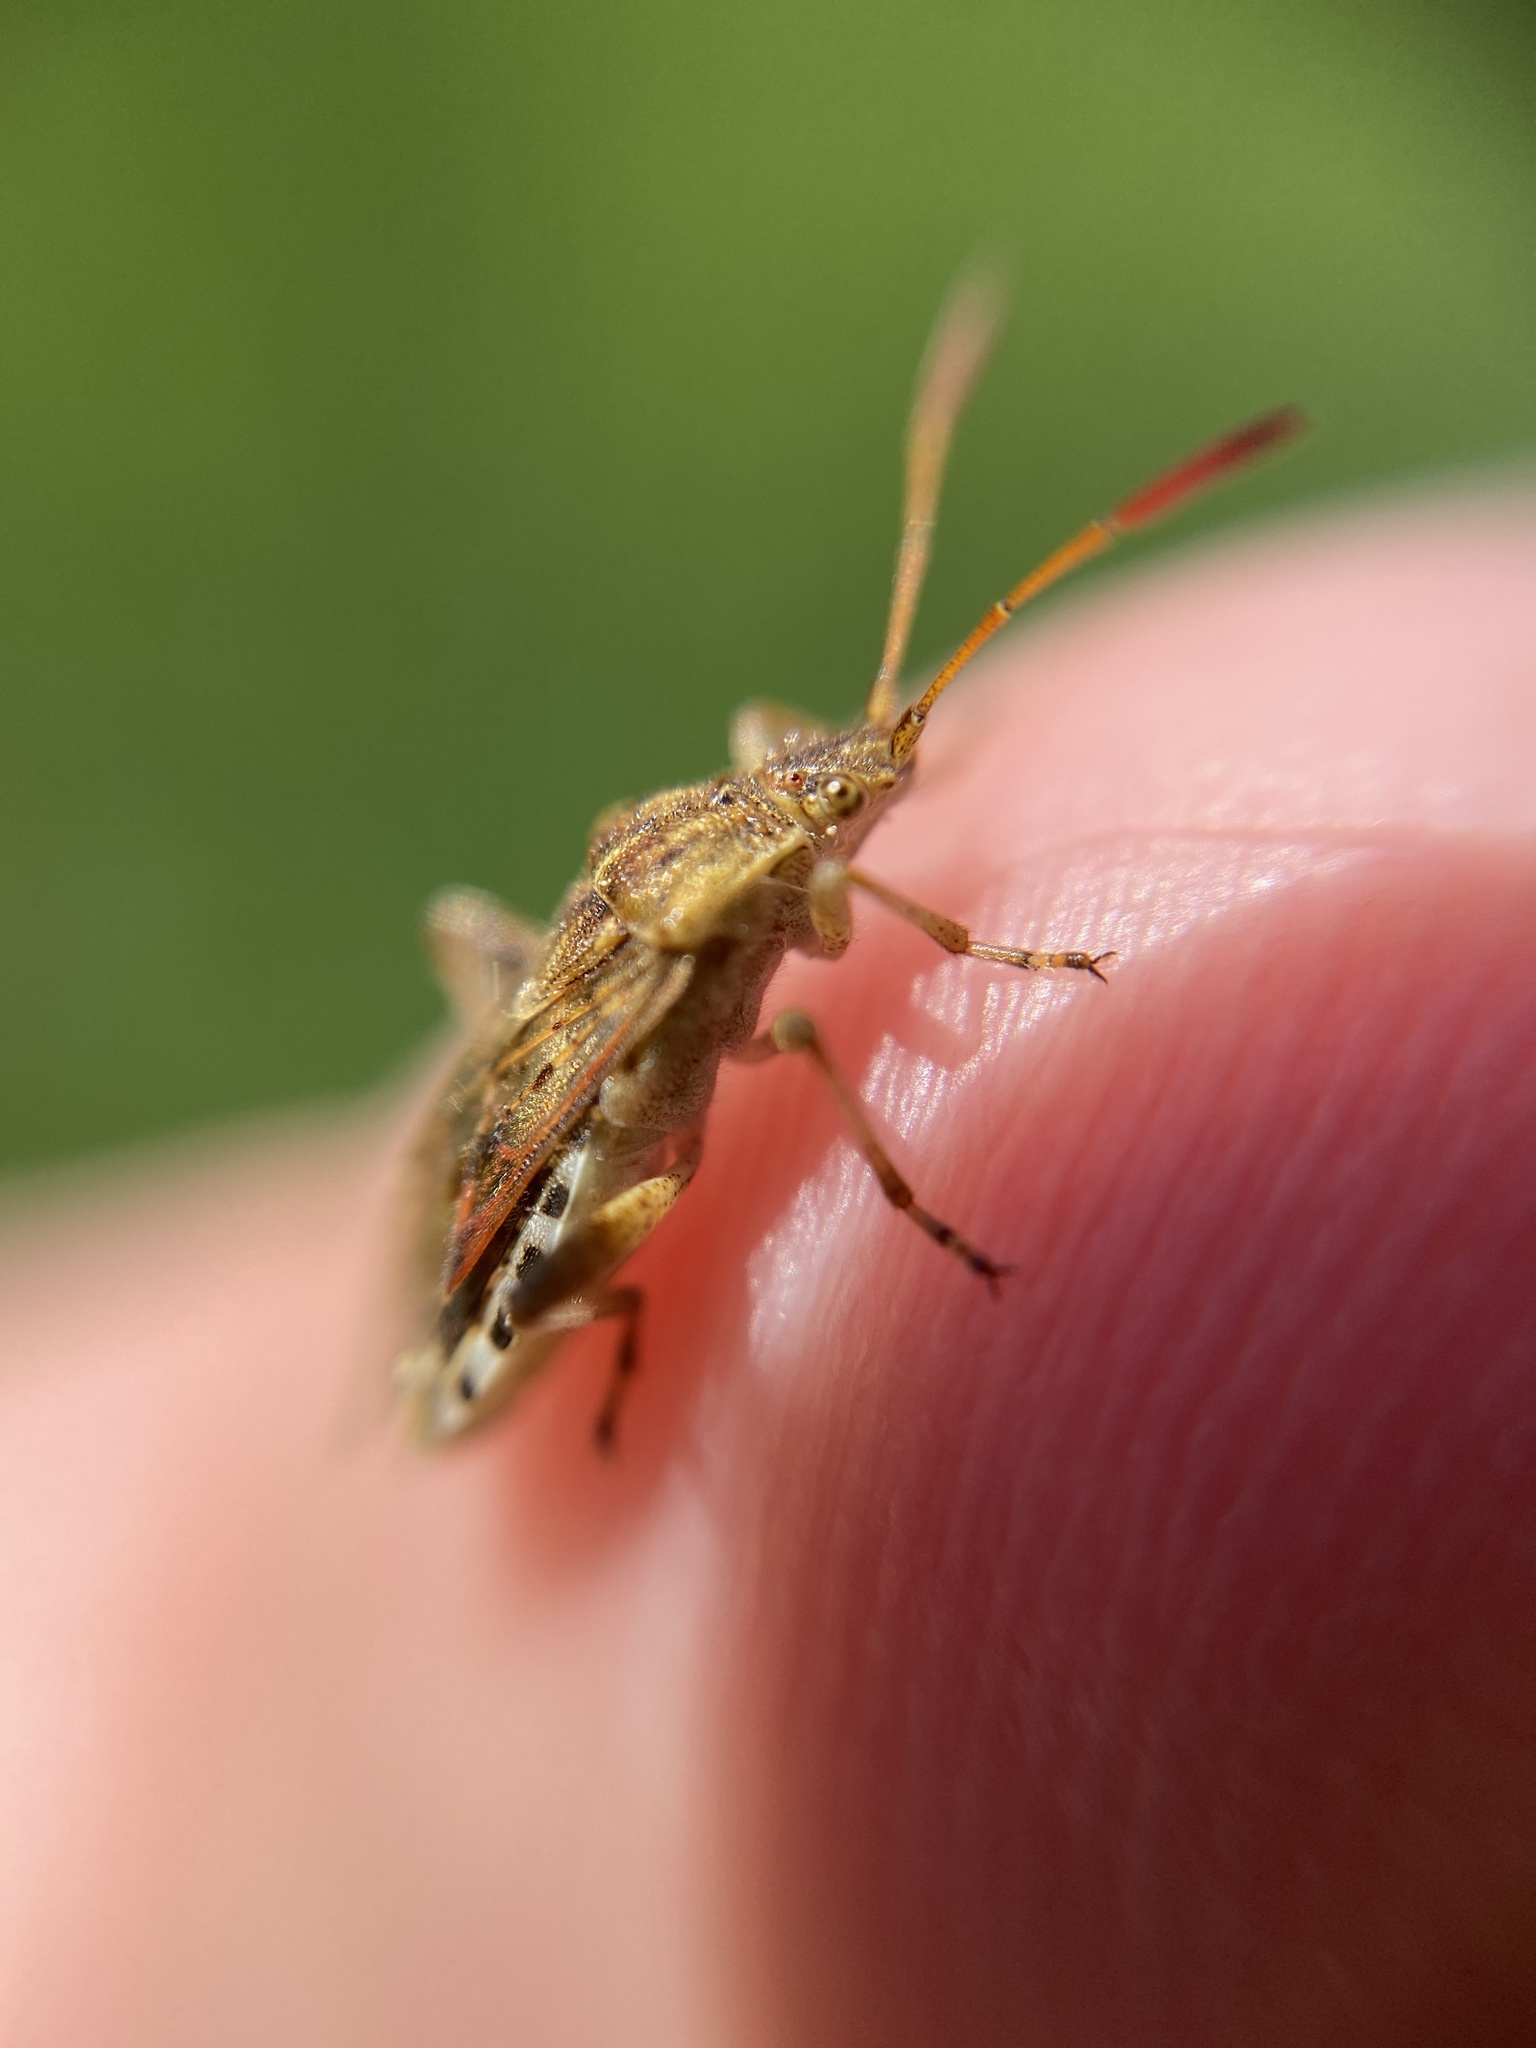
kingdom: Animalia
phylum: Arthropoda
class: Insecta
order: Hemiptera
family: Rhopalidae
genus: Stictopleurus
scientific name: Stictopleurus abutilon
